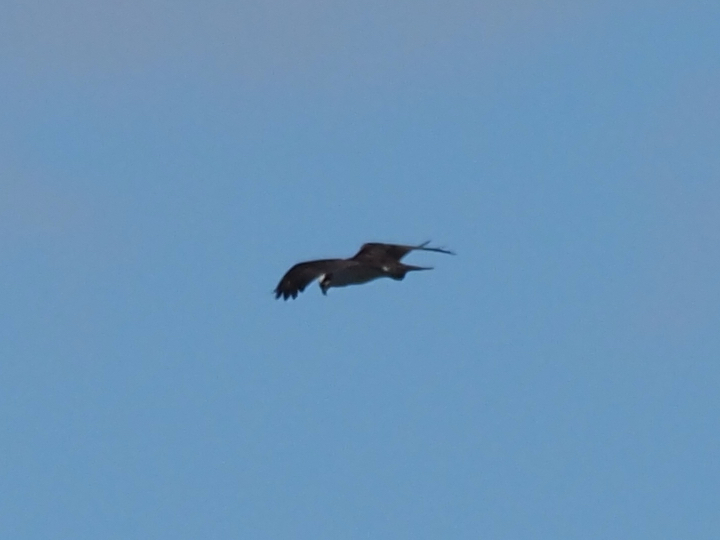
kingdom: Animalia
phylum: Chordata
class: Aves
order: Accipitriformes
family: Pandionidae
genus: Pandion
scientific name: Pandion haliaetus
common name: Osprey
